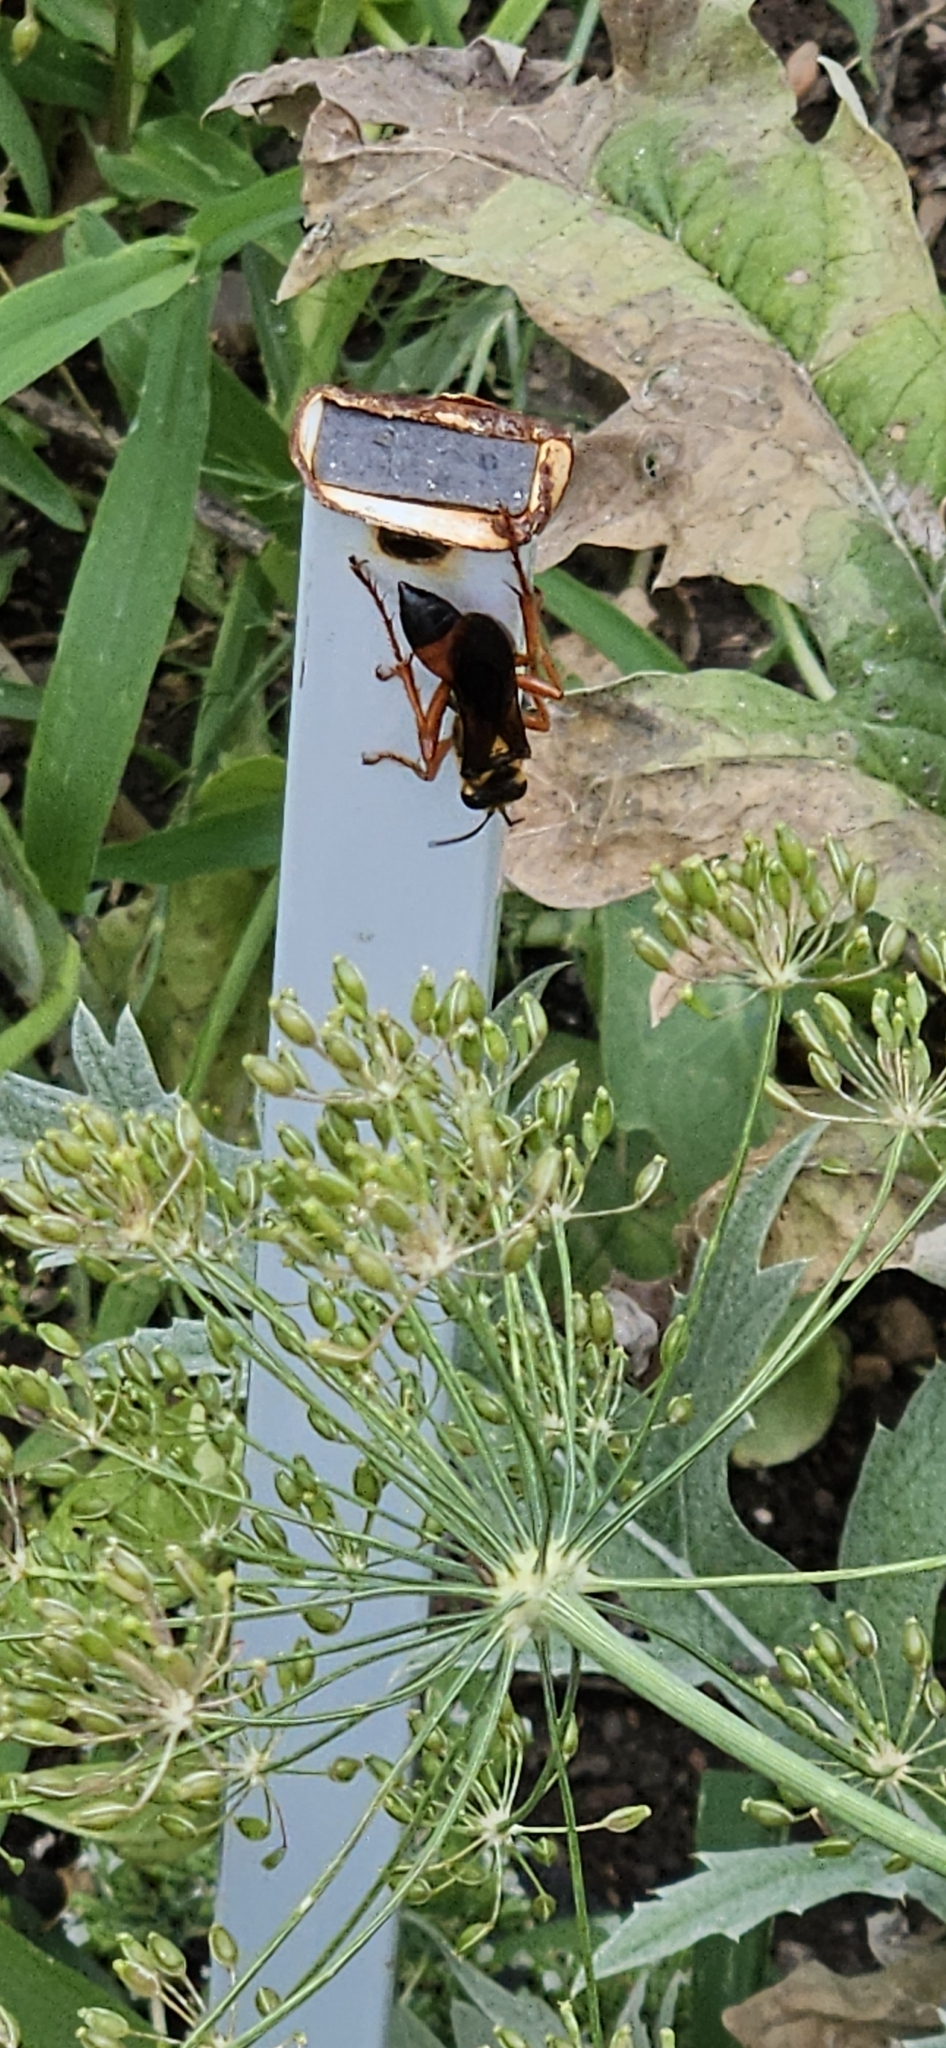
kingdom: Animalia
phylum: Arthropoda
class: Insecta
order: Hymenoptera
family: Sphecidae
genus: Sphex
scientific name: Sphex ichneumoneus
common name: Great golden digger wasp
